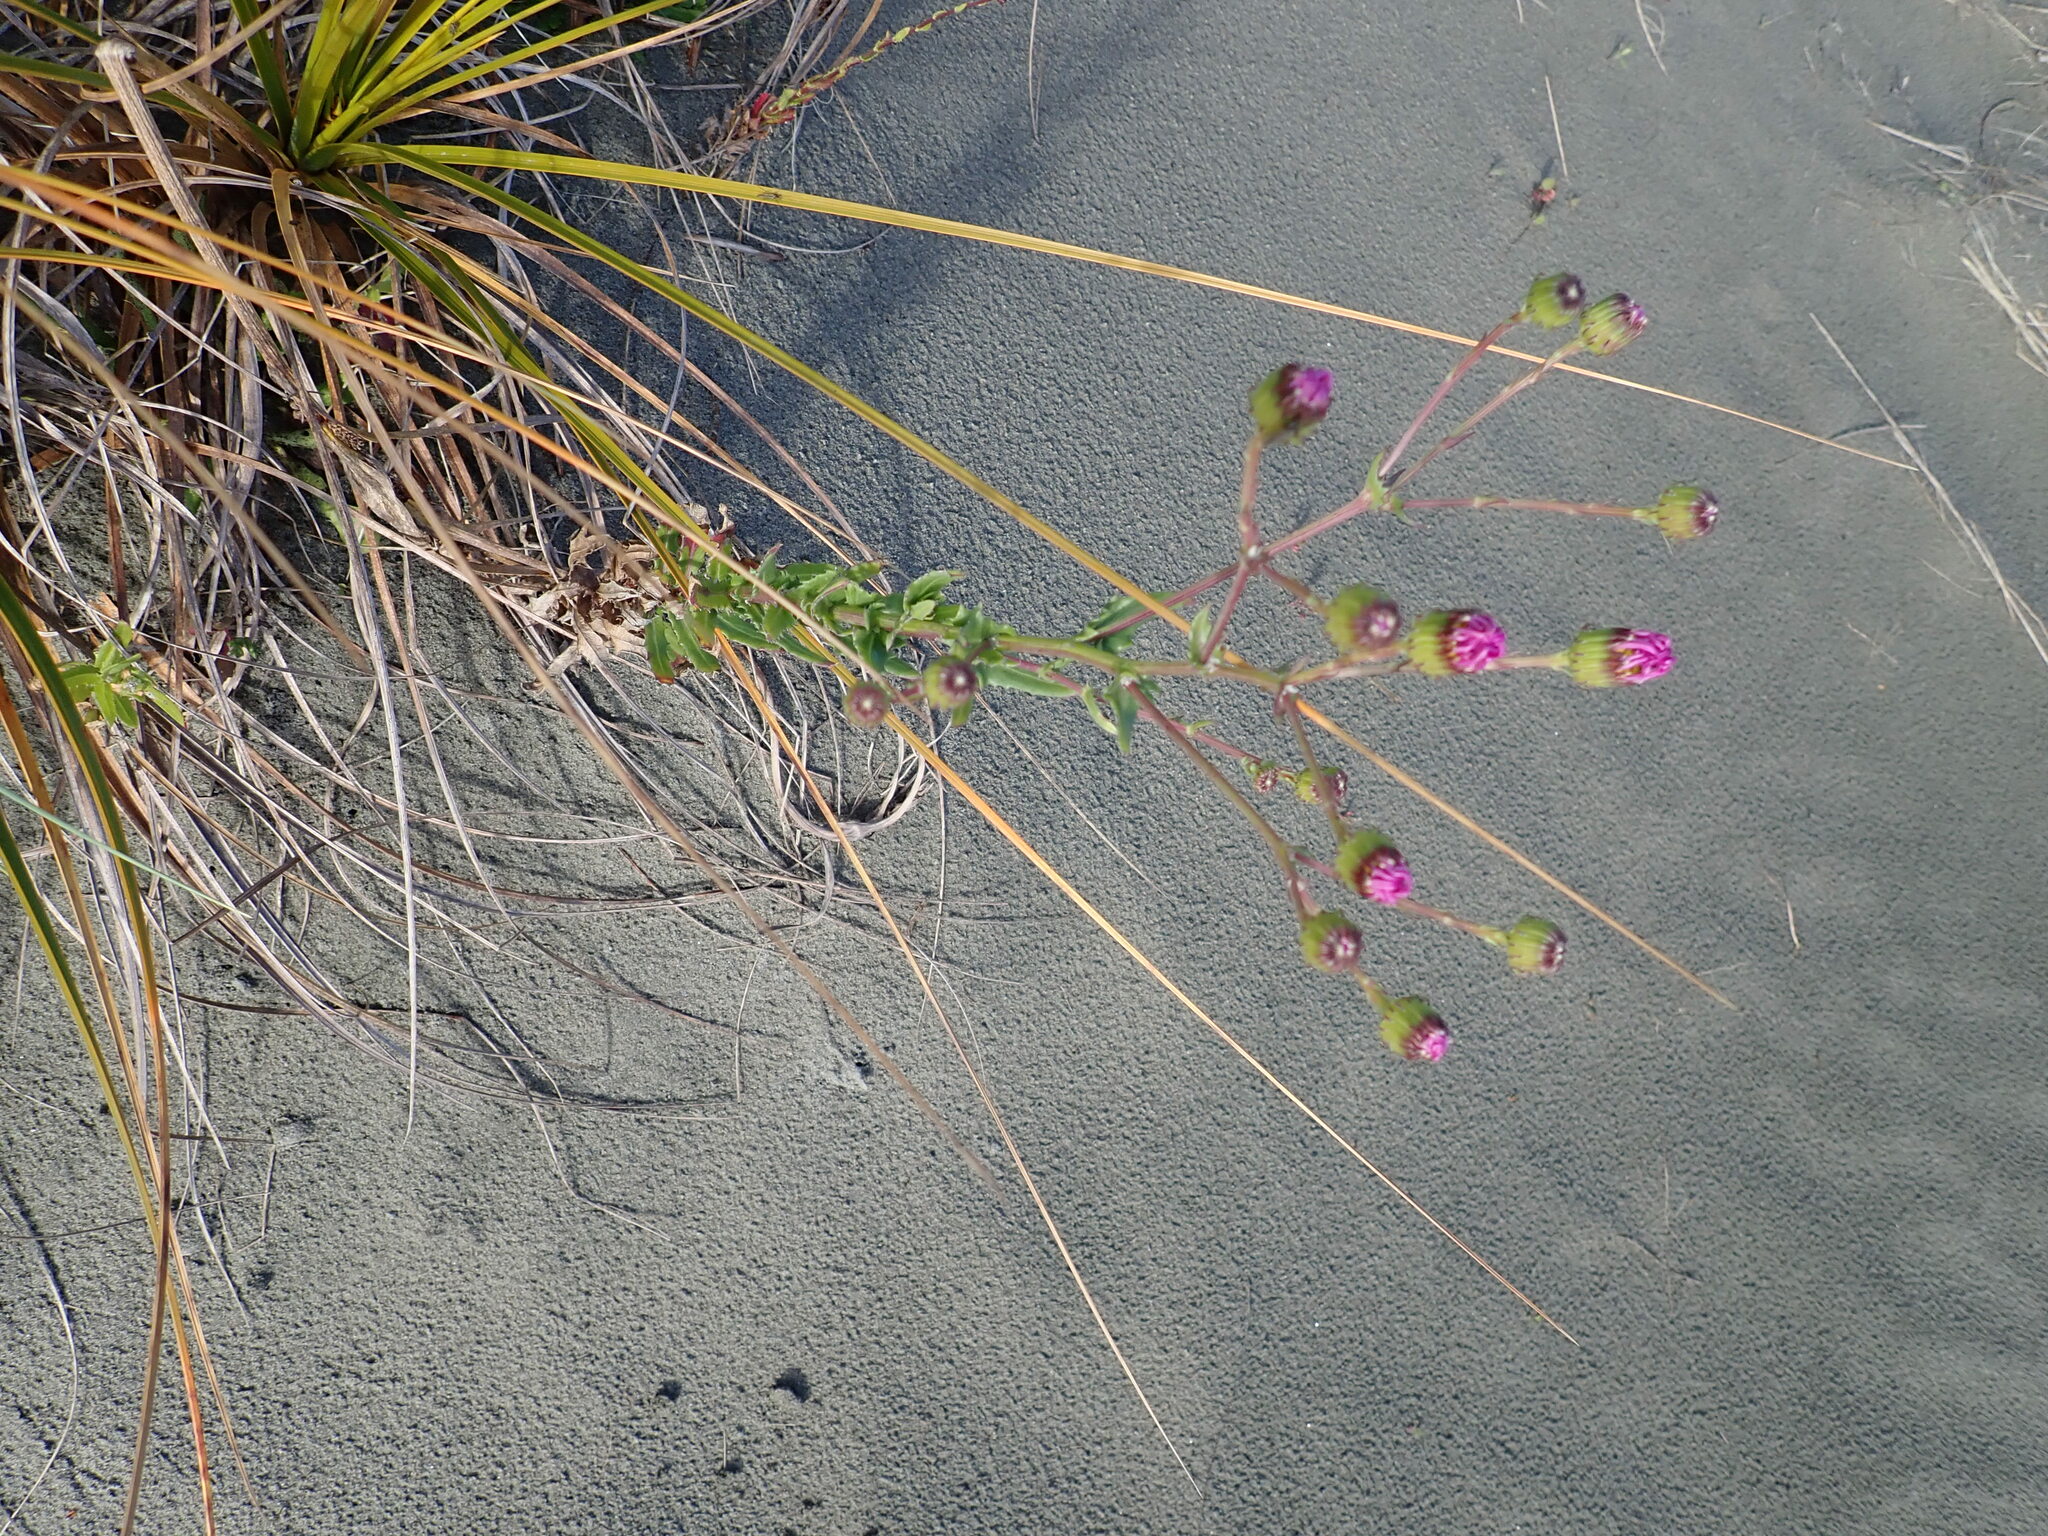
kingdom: Plantae
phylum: Tracheophyta
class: Magnoliopsida
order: Asterales
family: Asteraceae
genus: Senecio
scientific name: Senecio glastifolius
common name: Woad-leaved ragwort
